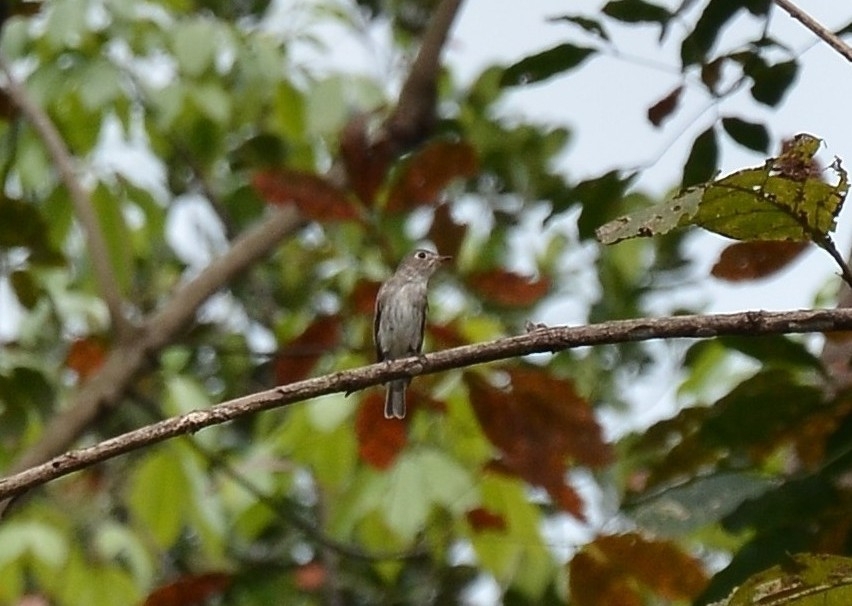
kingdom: Animalia
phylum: Chordata
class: Aves
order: Passeriformes
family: Muscicapidae
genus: Muscicapa
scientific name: Muscicapa latirostris
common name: Asian brown flycatcher
